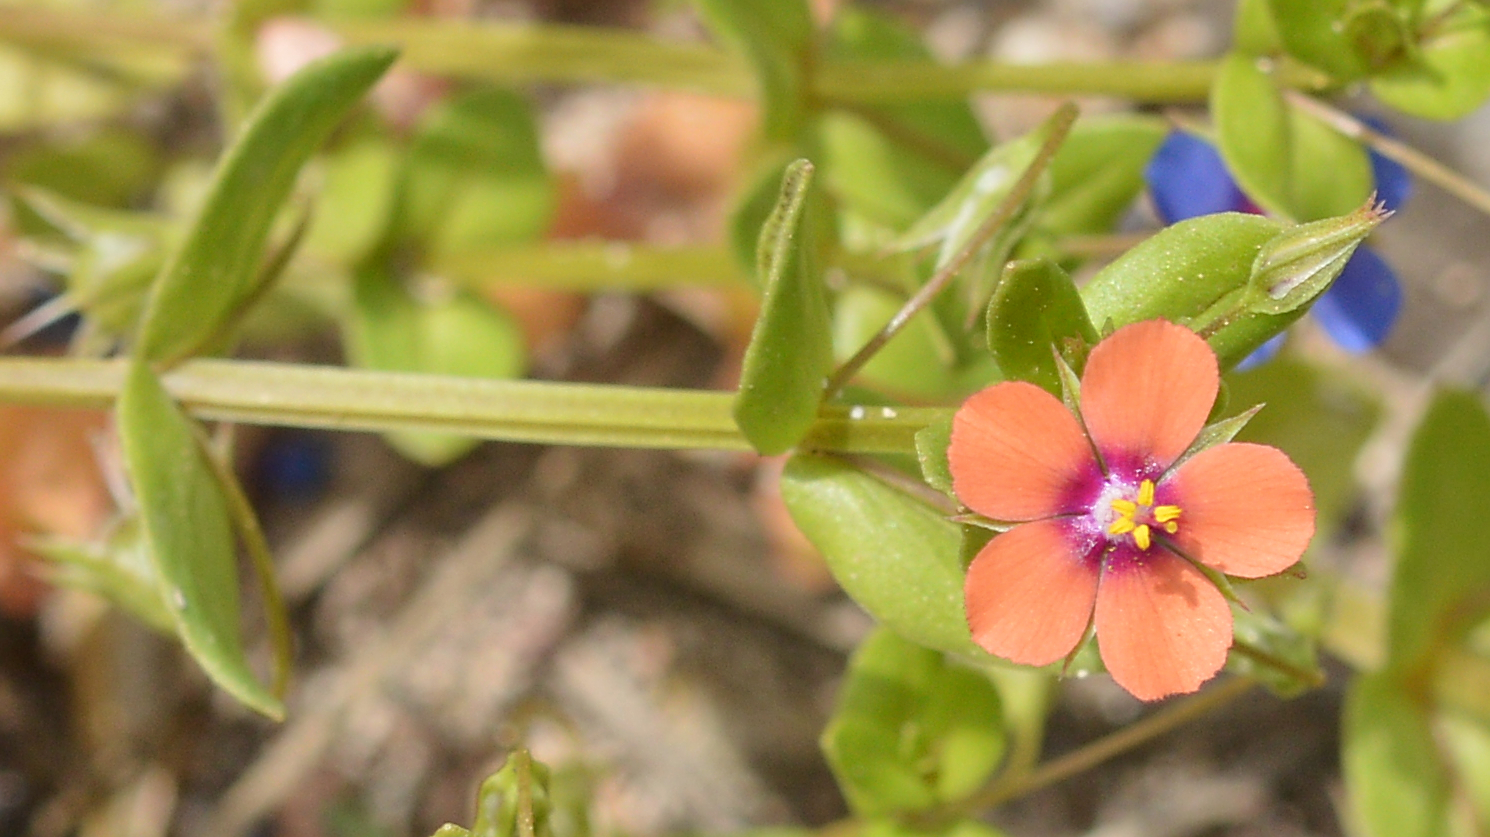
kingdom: Plantae
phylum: Tracheophyta
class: Magnoliopsida
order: Ericales
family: Primulaceae
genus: Lysimachia
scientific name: Lysimachia arvensis
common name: Scarlet pimpernel
